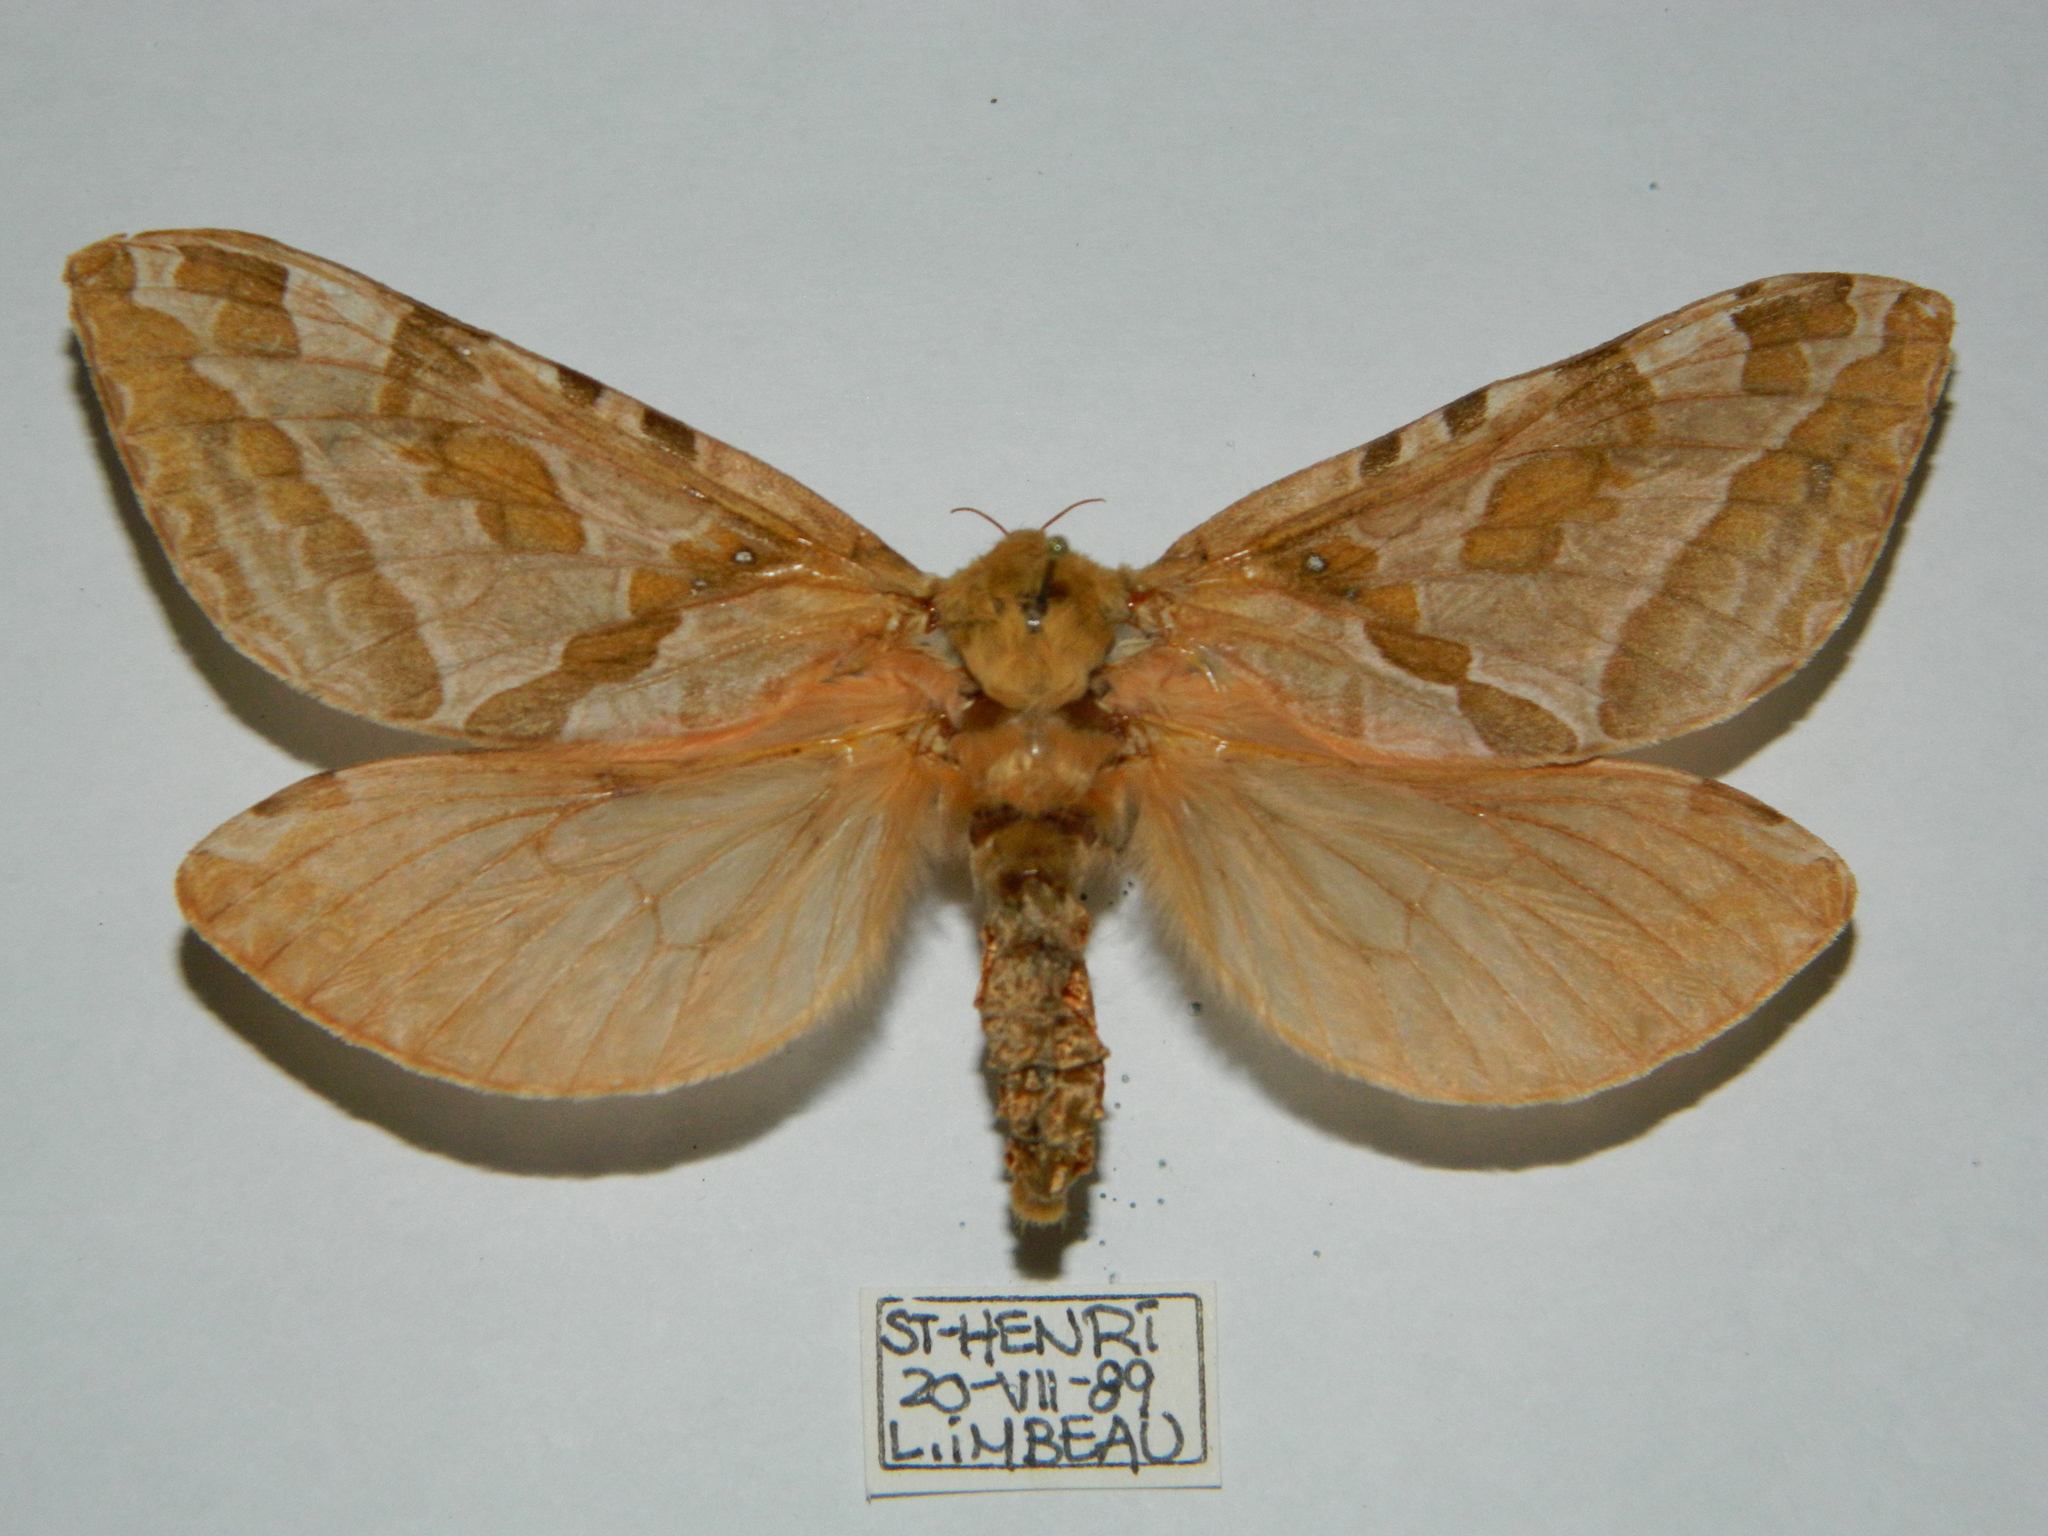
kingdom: Animalia
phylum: Arthropoda
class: Insecta
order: Lepidoptera
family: Hepialidae
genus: Sthenopis
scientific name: Sthenopis purpurascens
